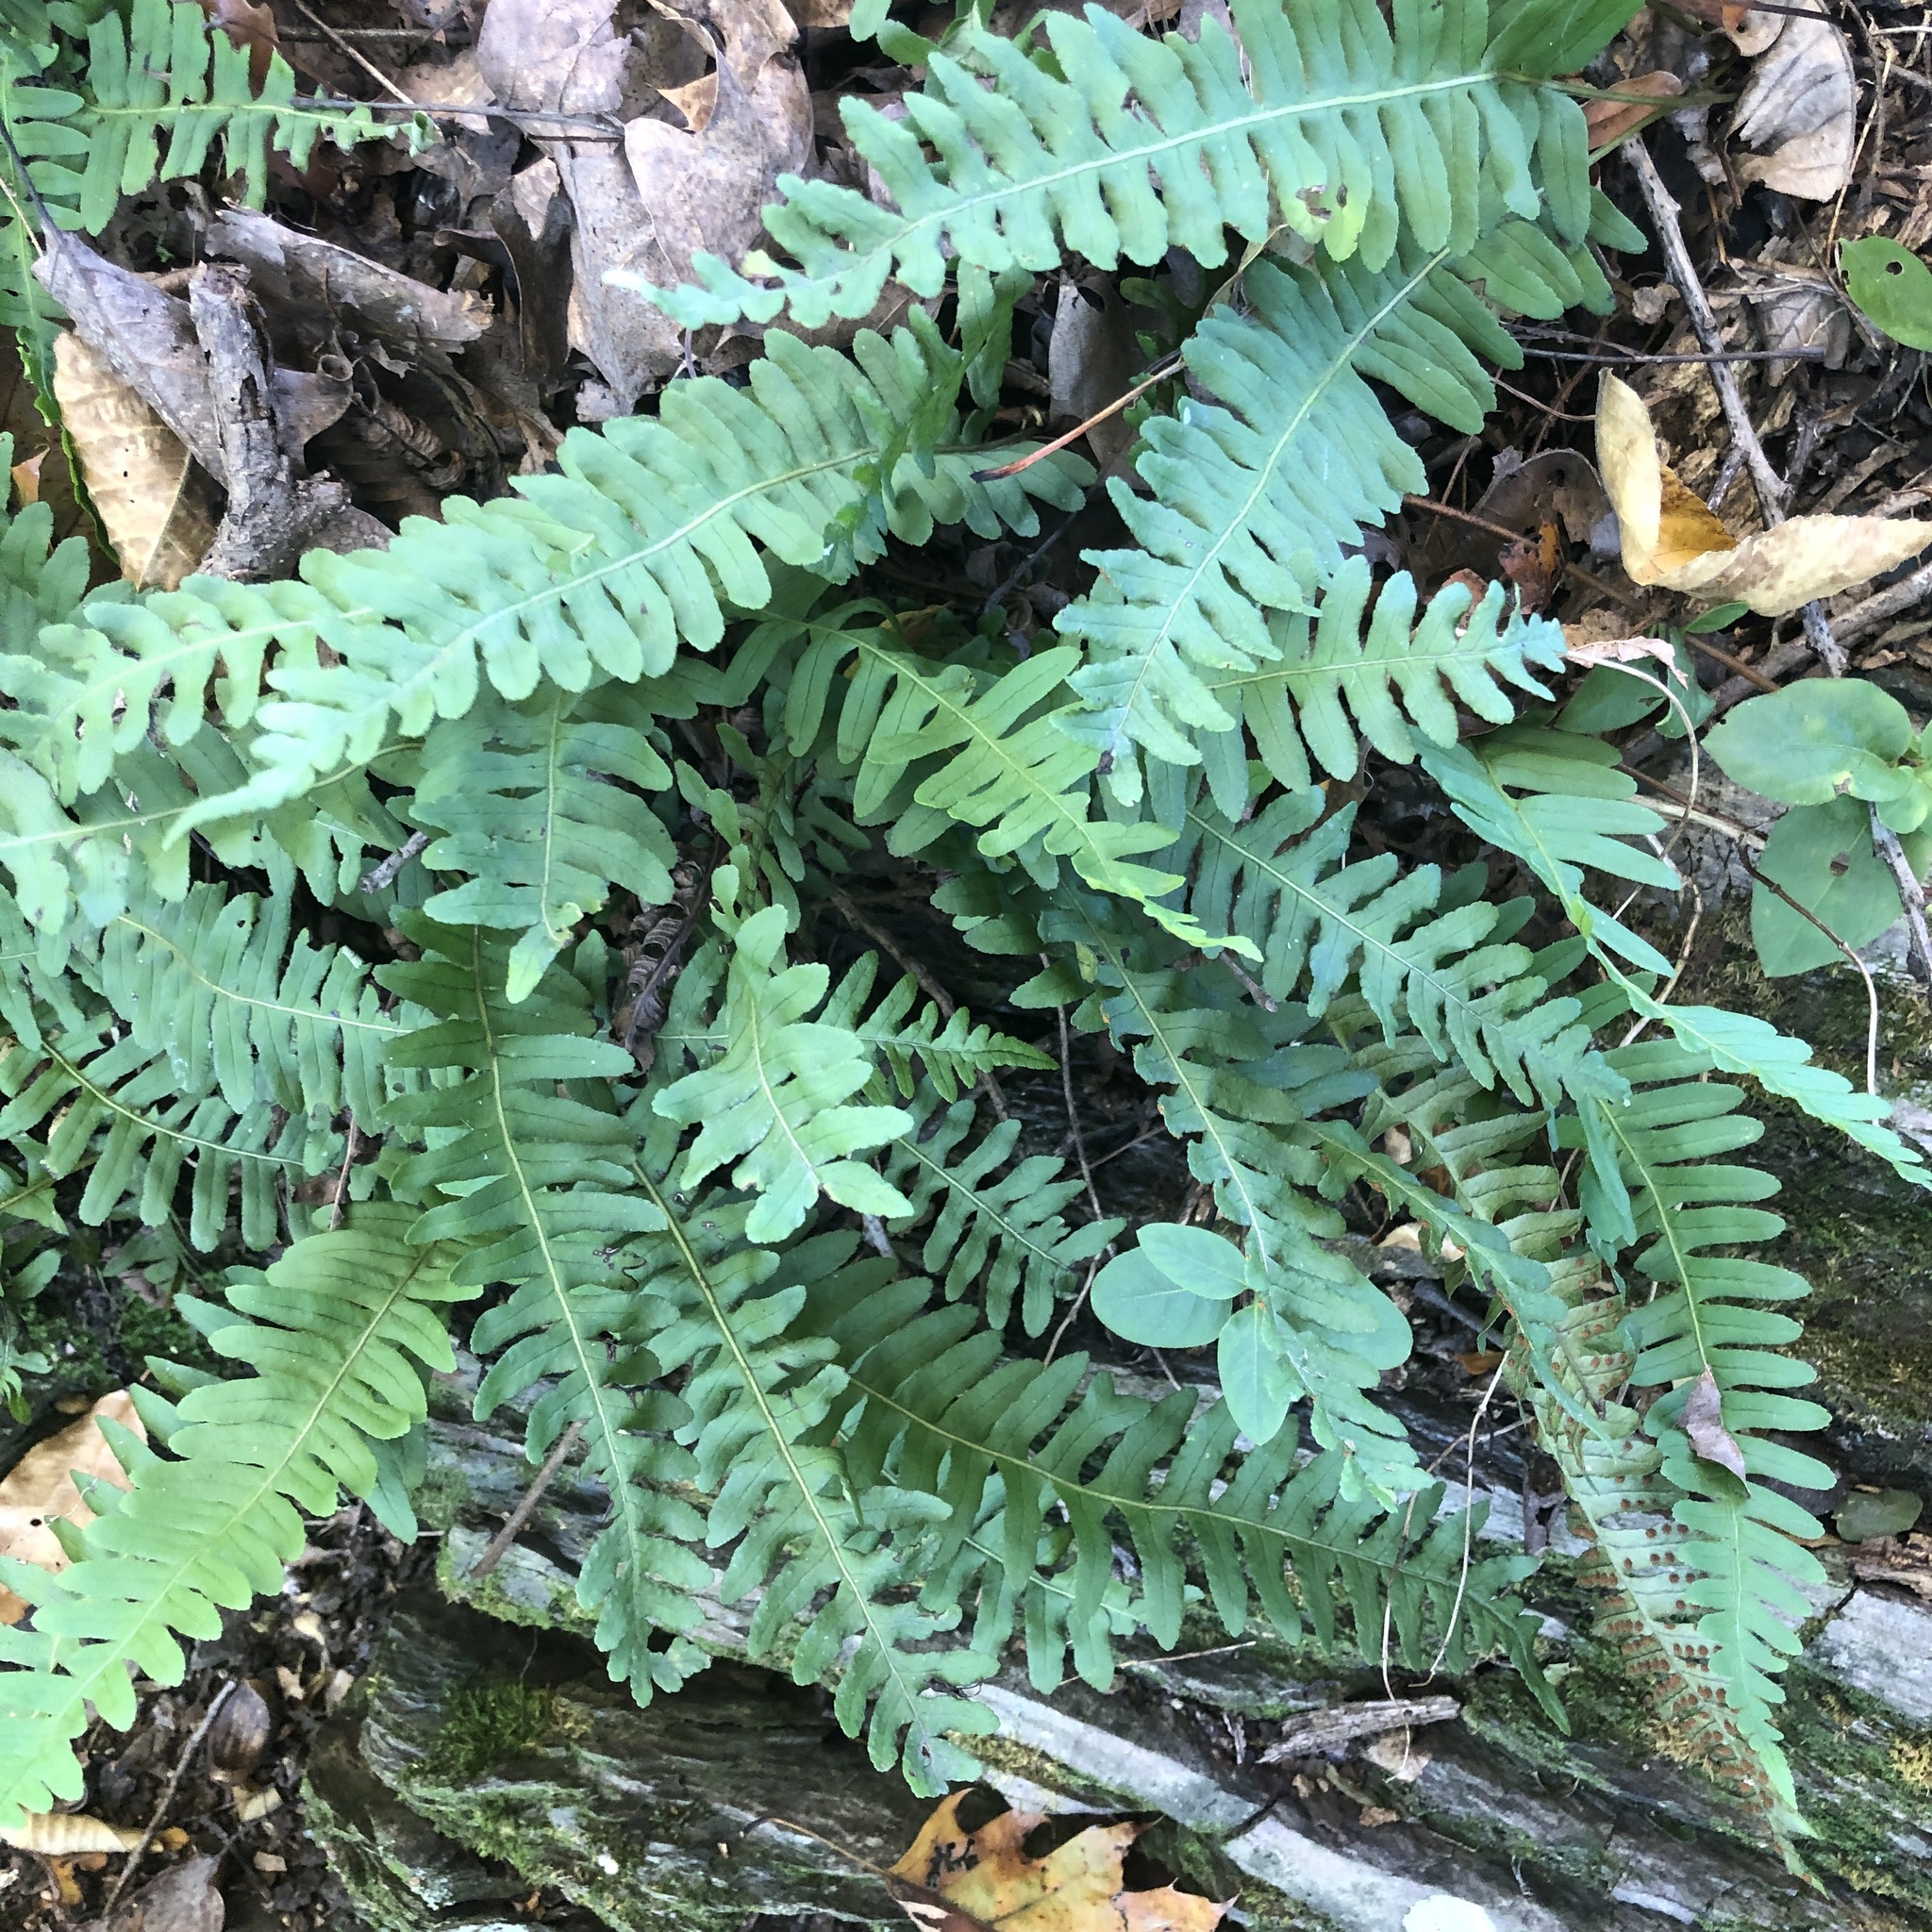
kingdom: Plantae
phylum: Tracheophyta
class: Polypodiopsida
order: Polypodiales
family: Polypodiaceae
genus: Polypodium
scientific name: Polypodium virginianum
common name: American wall fern
